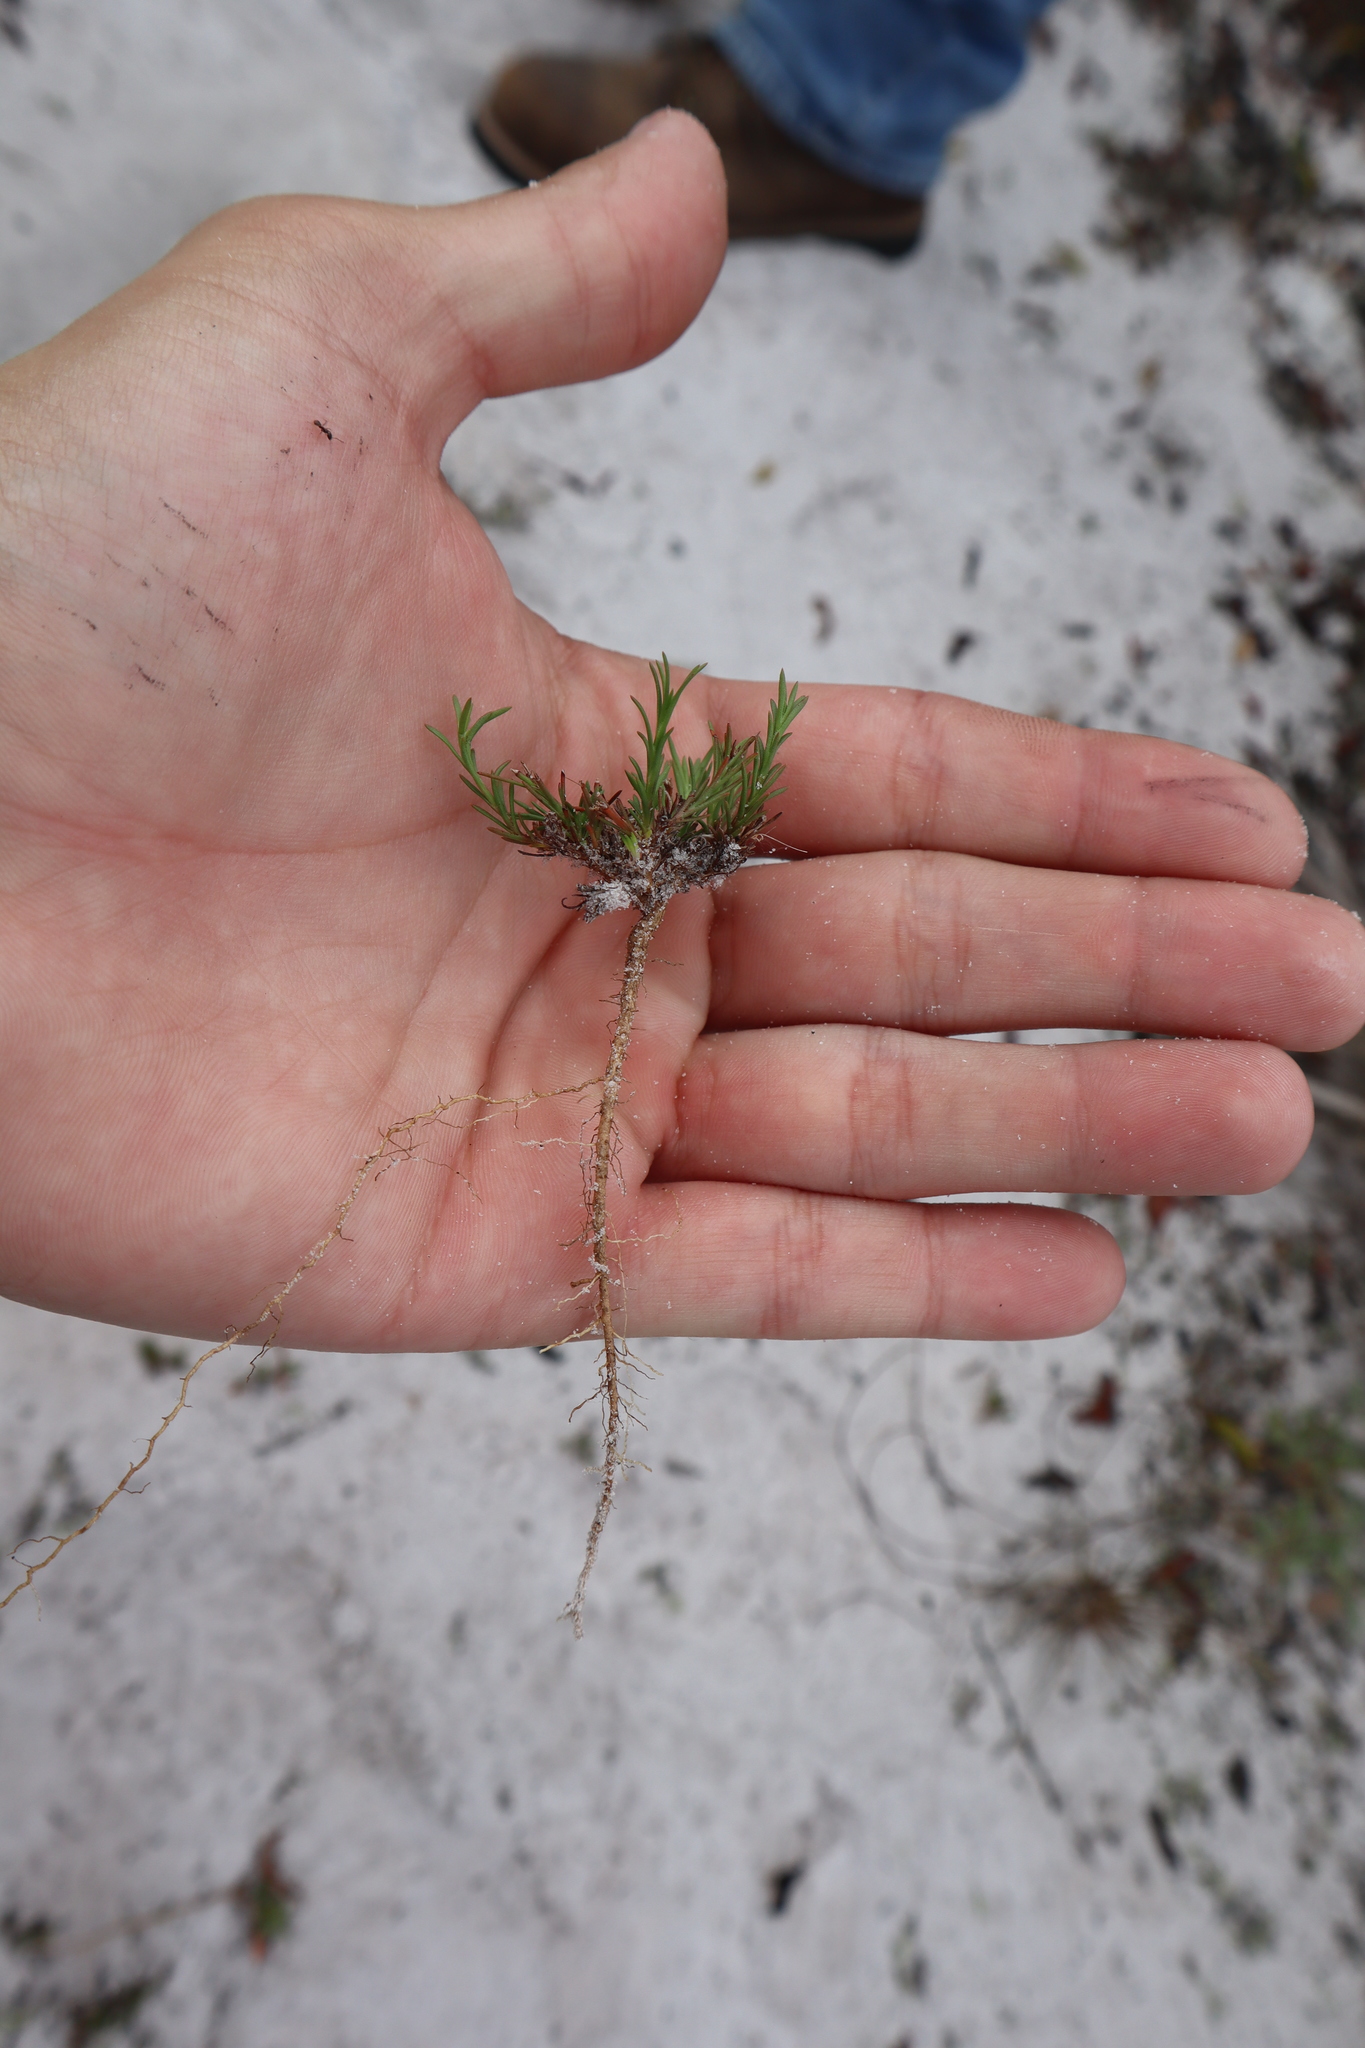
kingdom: Plantae
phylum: Tracheophyta
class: Magnoliopsida
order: Lamiales
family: Tetrachondraceae
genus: Polypremum
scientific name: Polypremum procumbens
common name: Juniper-leaf
